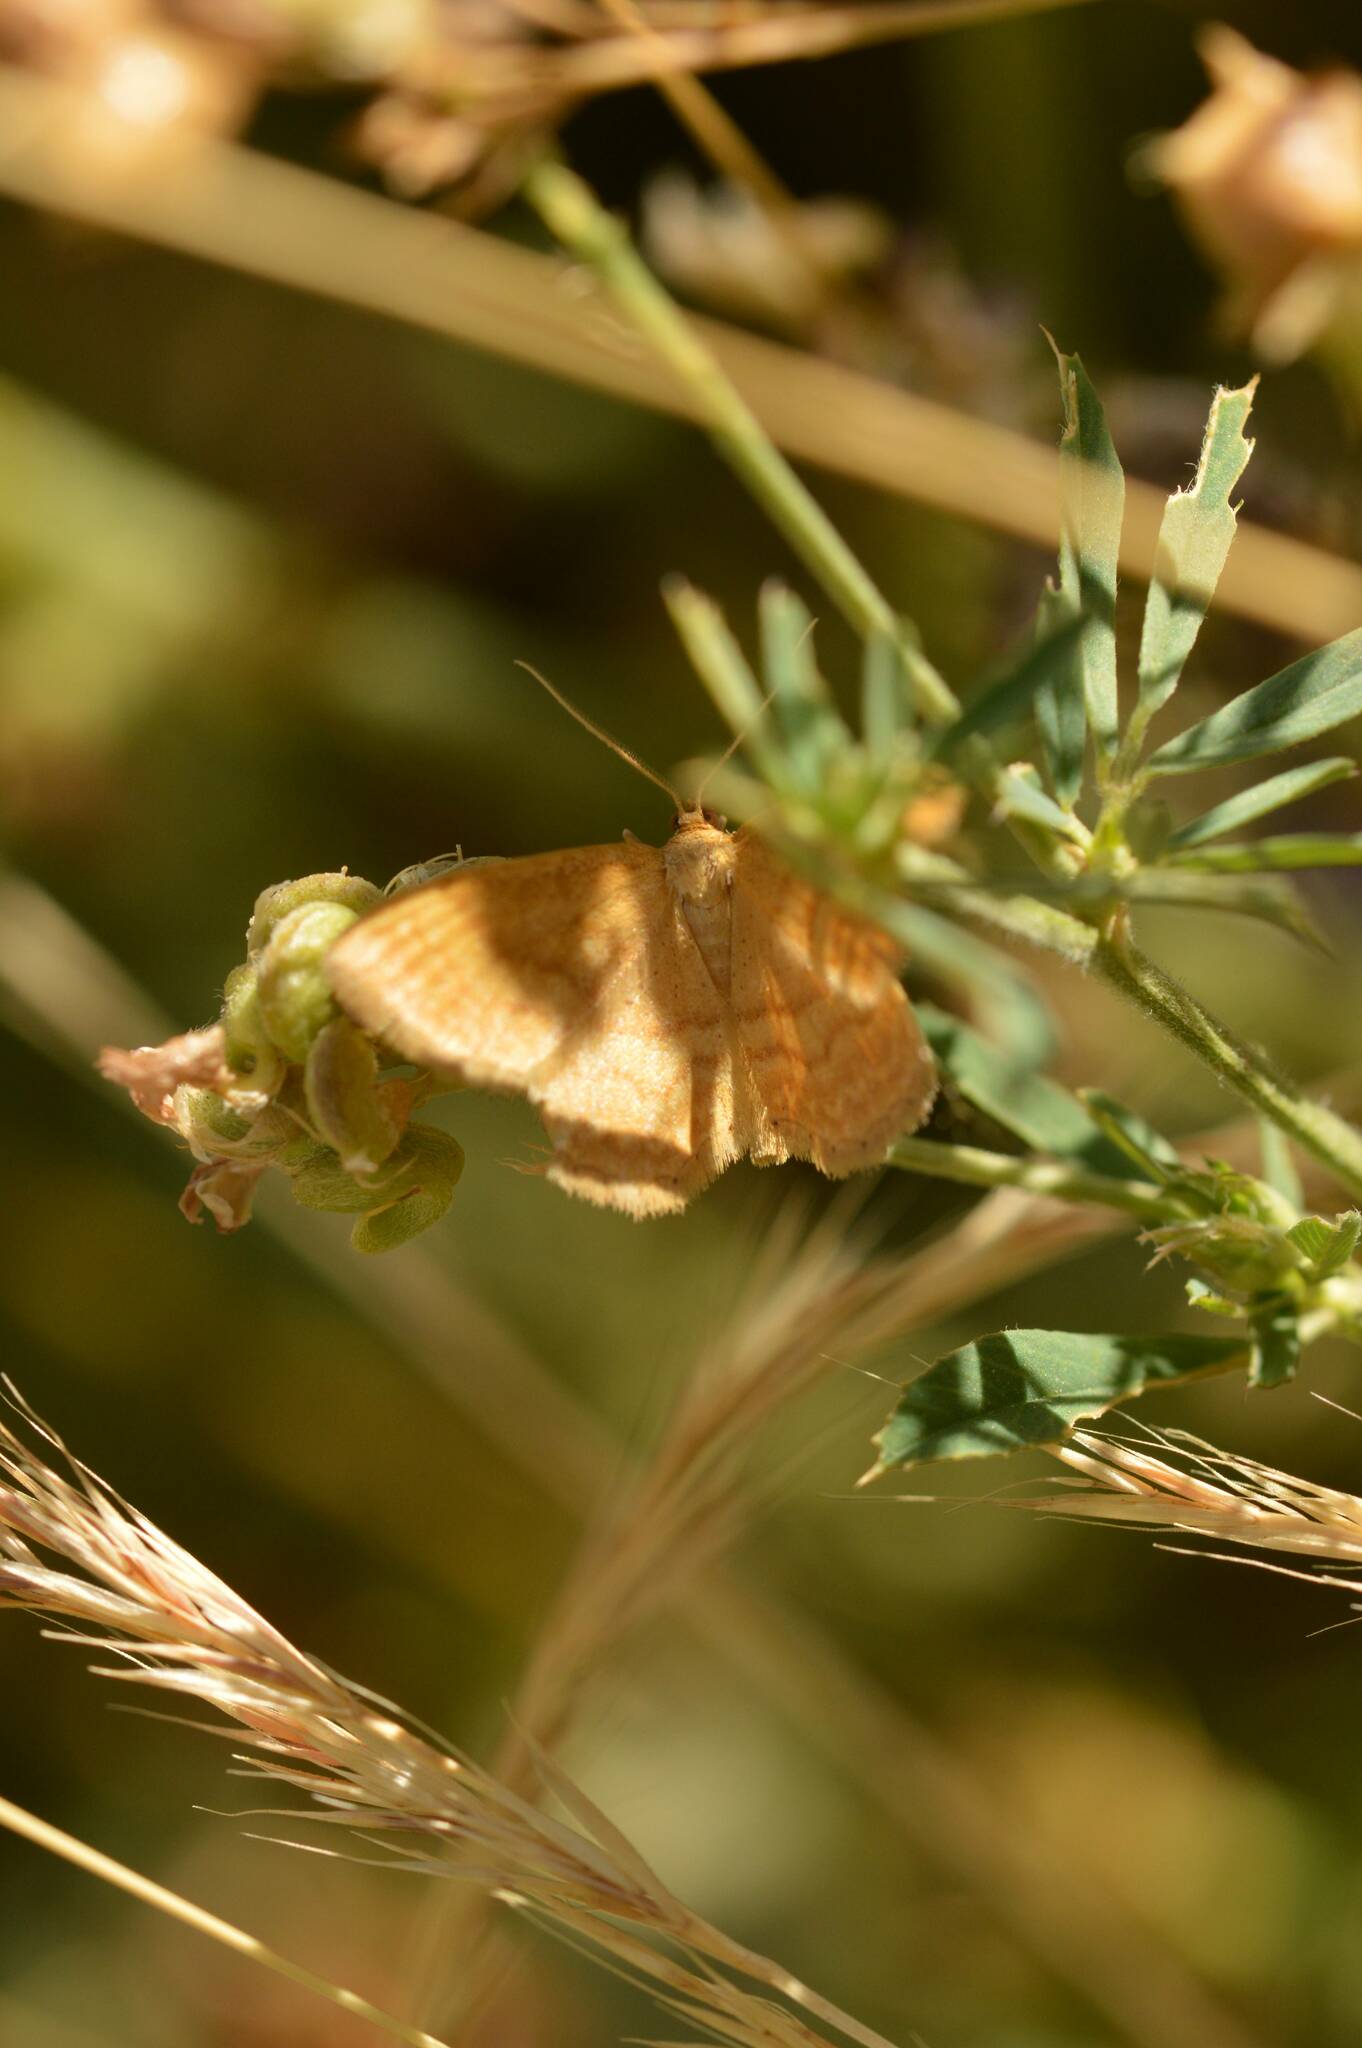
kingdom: Animalia
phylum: Arthropoda
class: Insecta
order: Lepidoptera
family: Geometridae
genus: Idaea
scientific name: Idaea ochrata
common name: Bright wave
